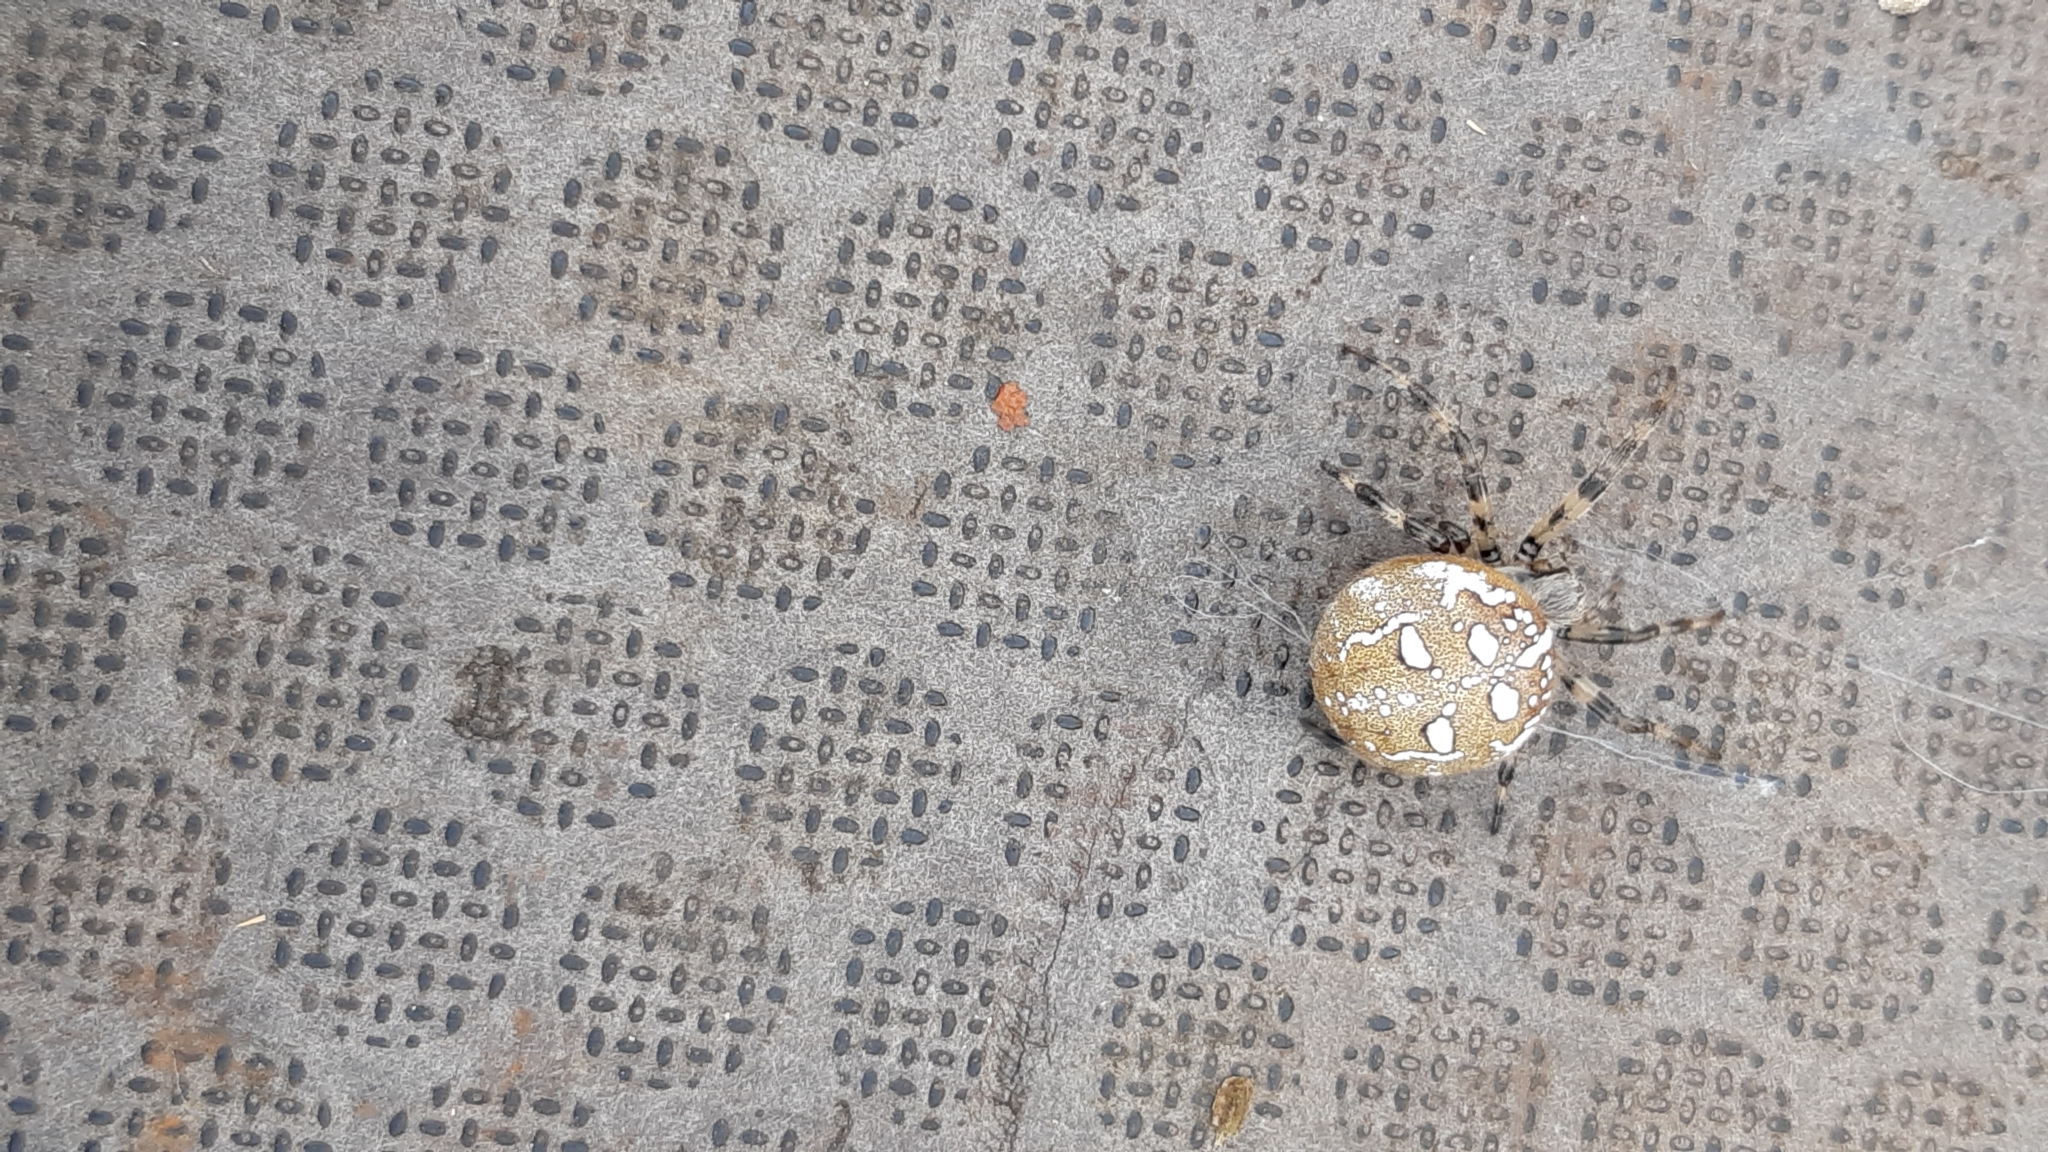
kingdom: Animalia
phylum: Arthropoda
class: Arachnida
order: Araneae
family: Araneidae
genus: Araneus
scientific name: Araneus quadratus
